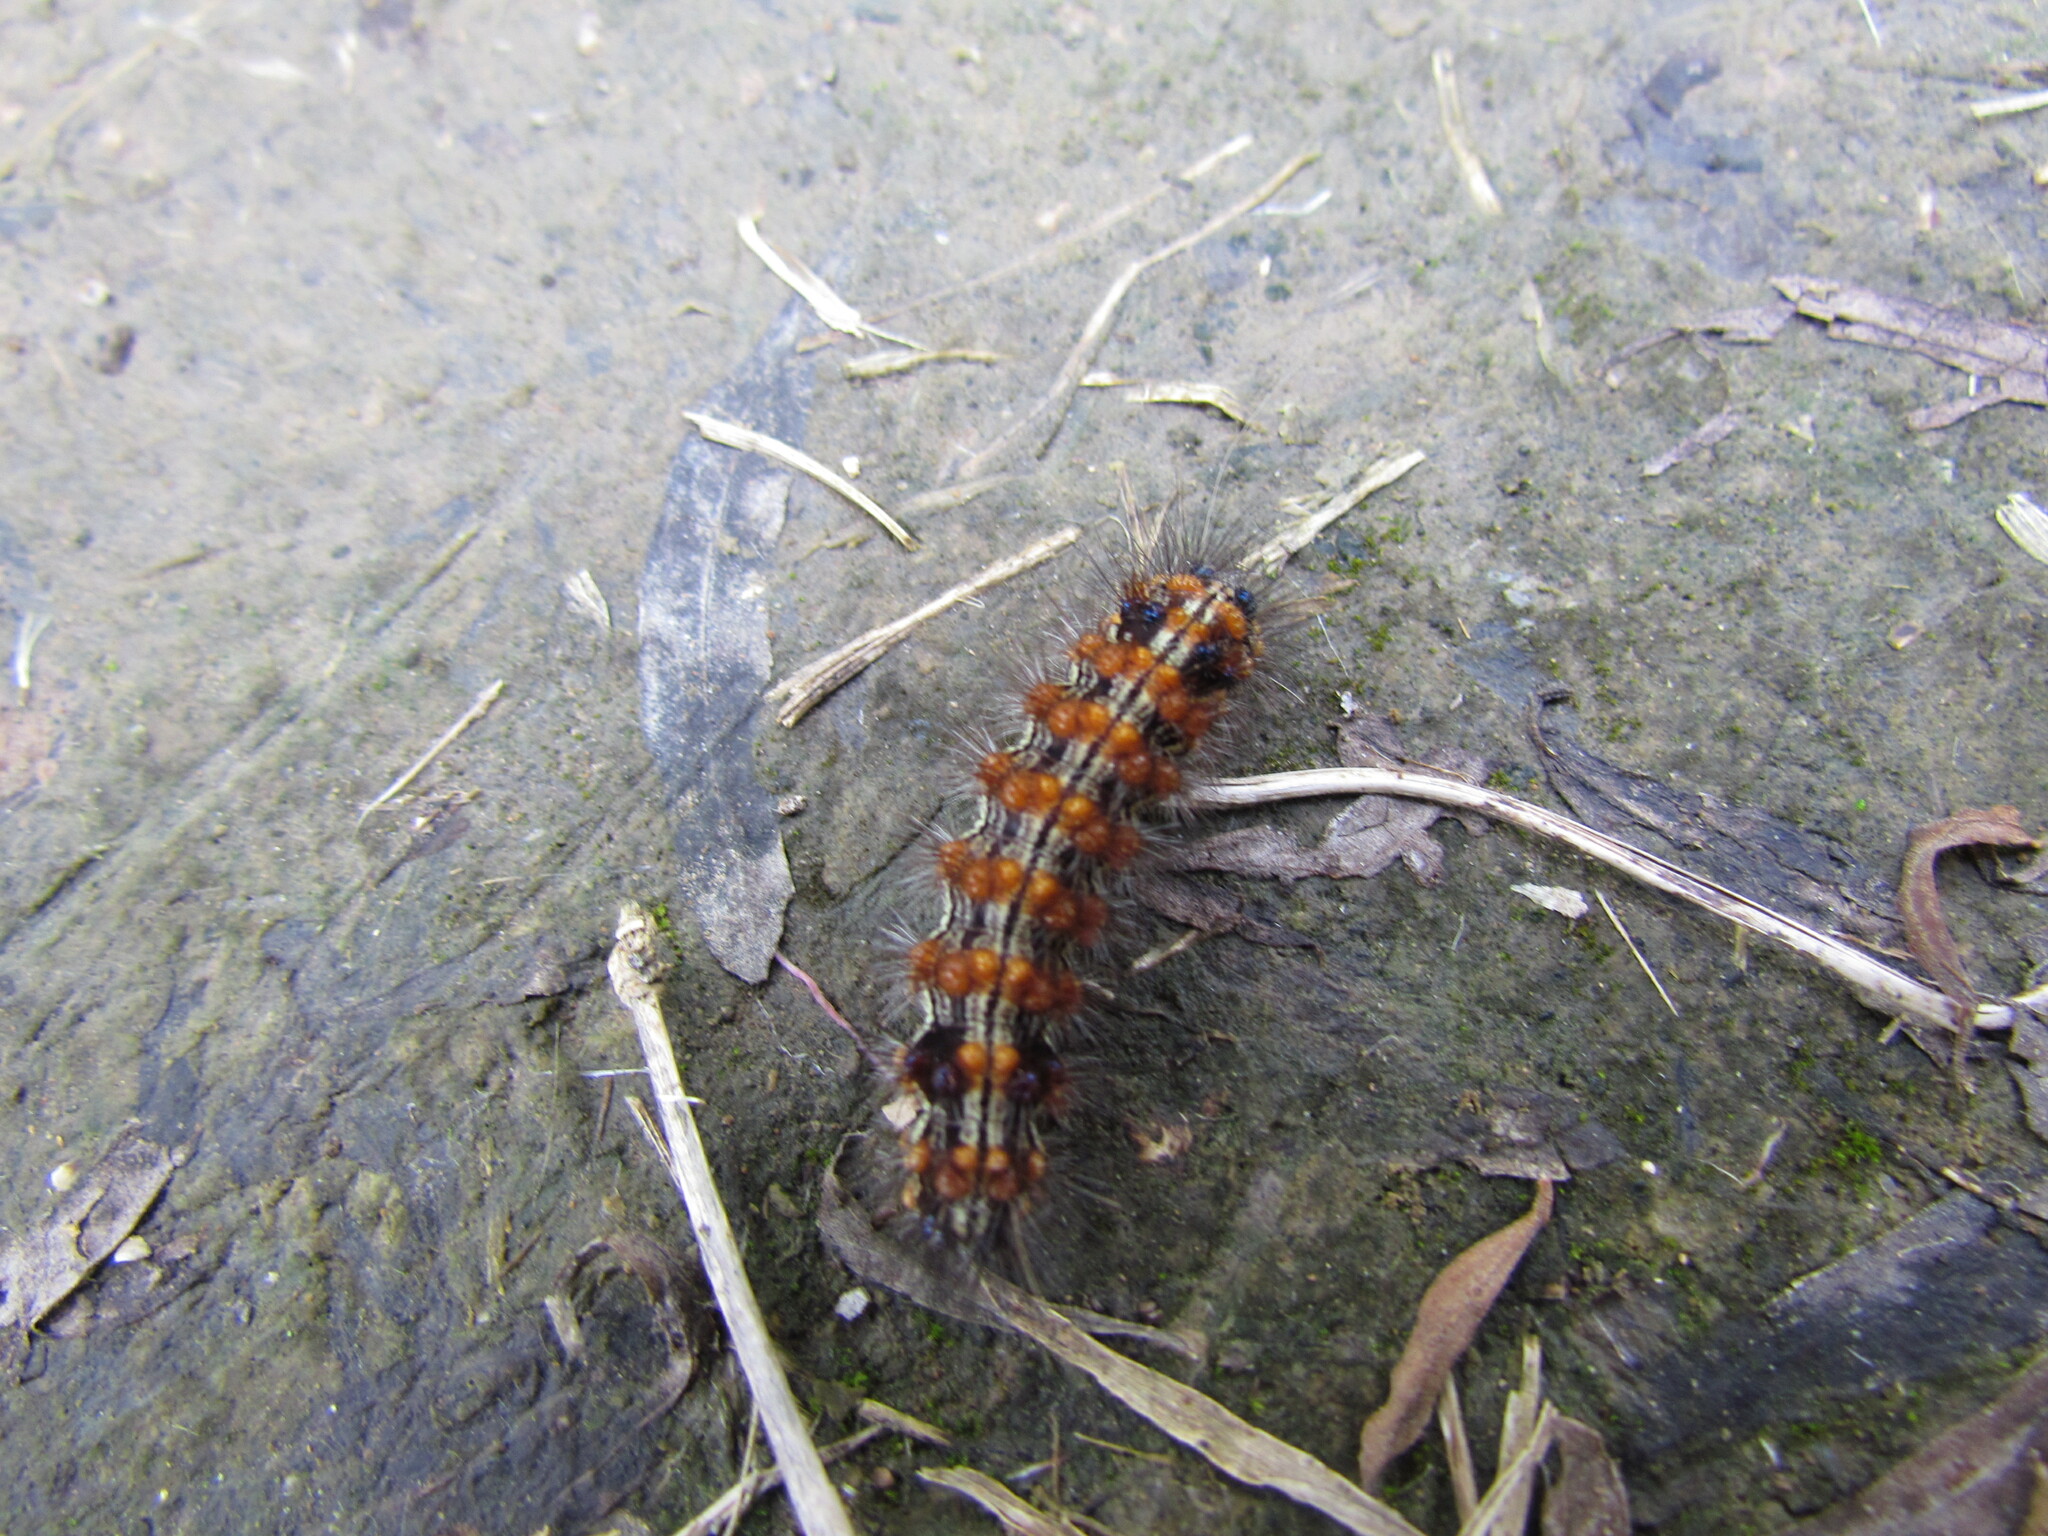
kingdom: Animalia
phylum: Arthropoda
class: Insecta
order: Lepidoptera
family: Erebidae
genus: Dysschema
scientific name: Dysschema sacrifica
